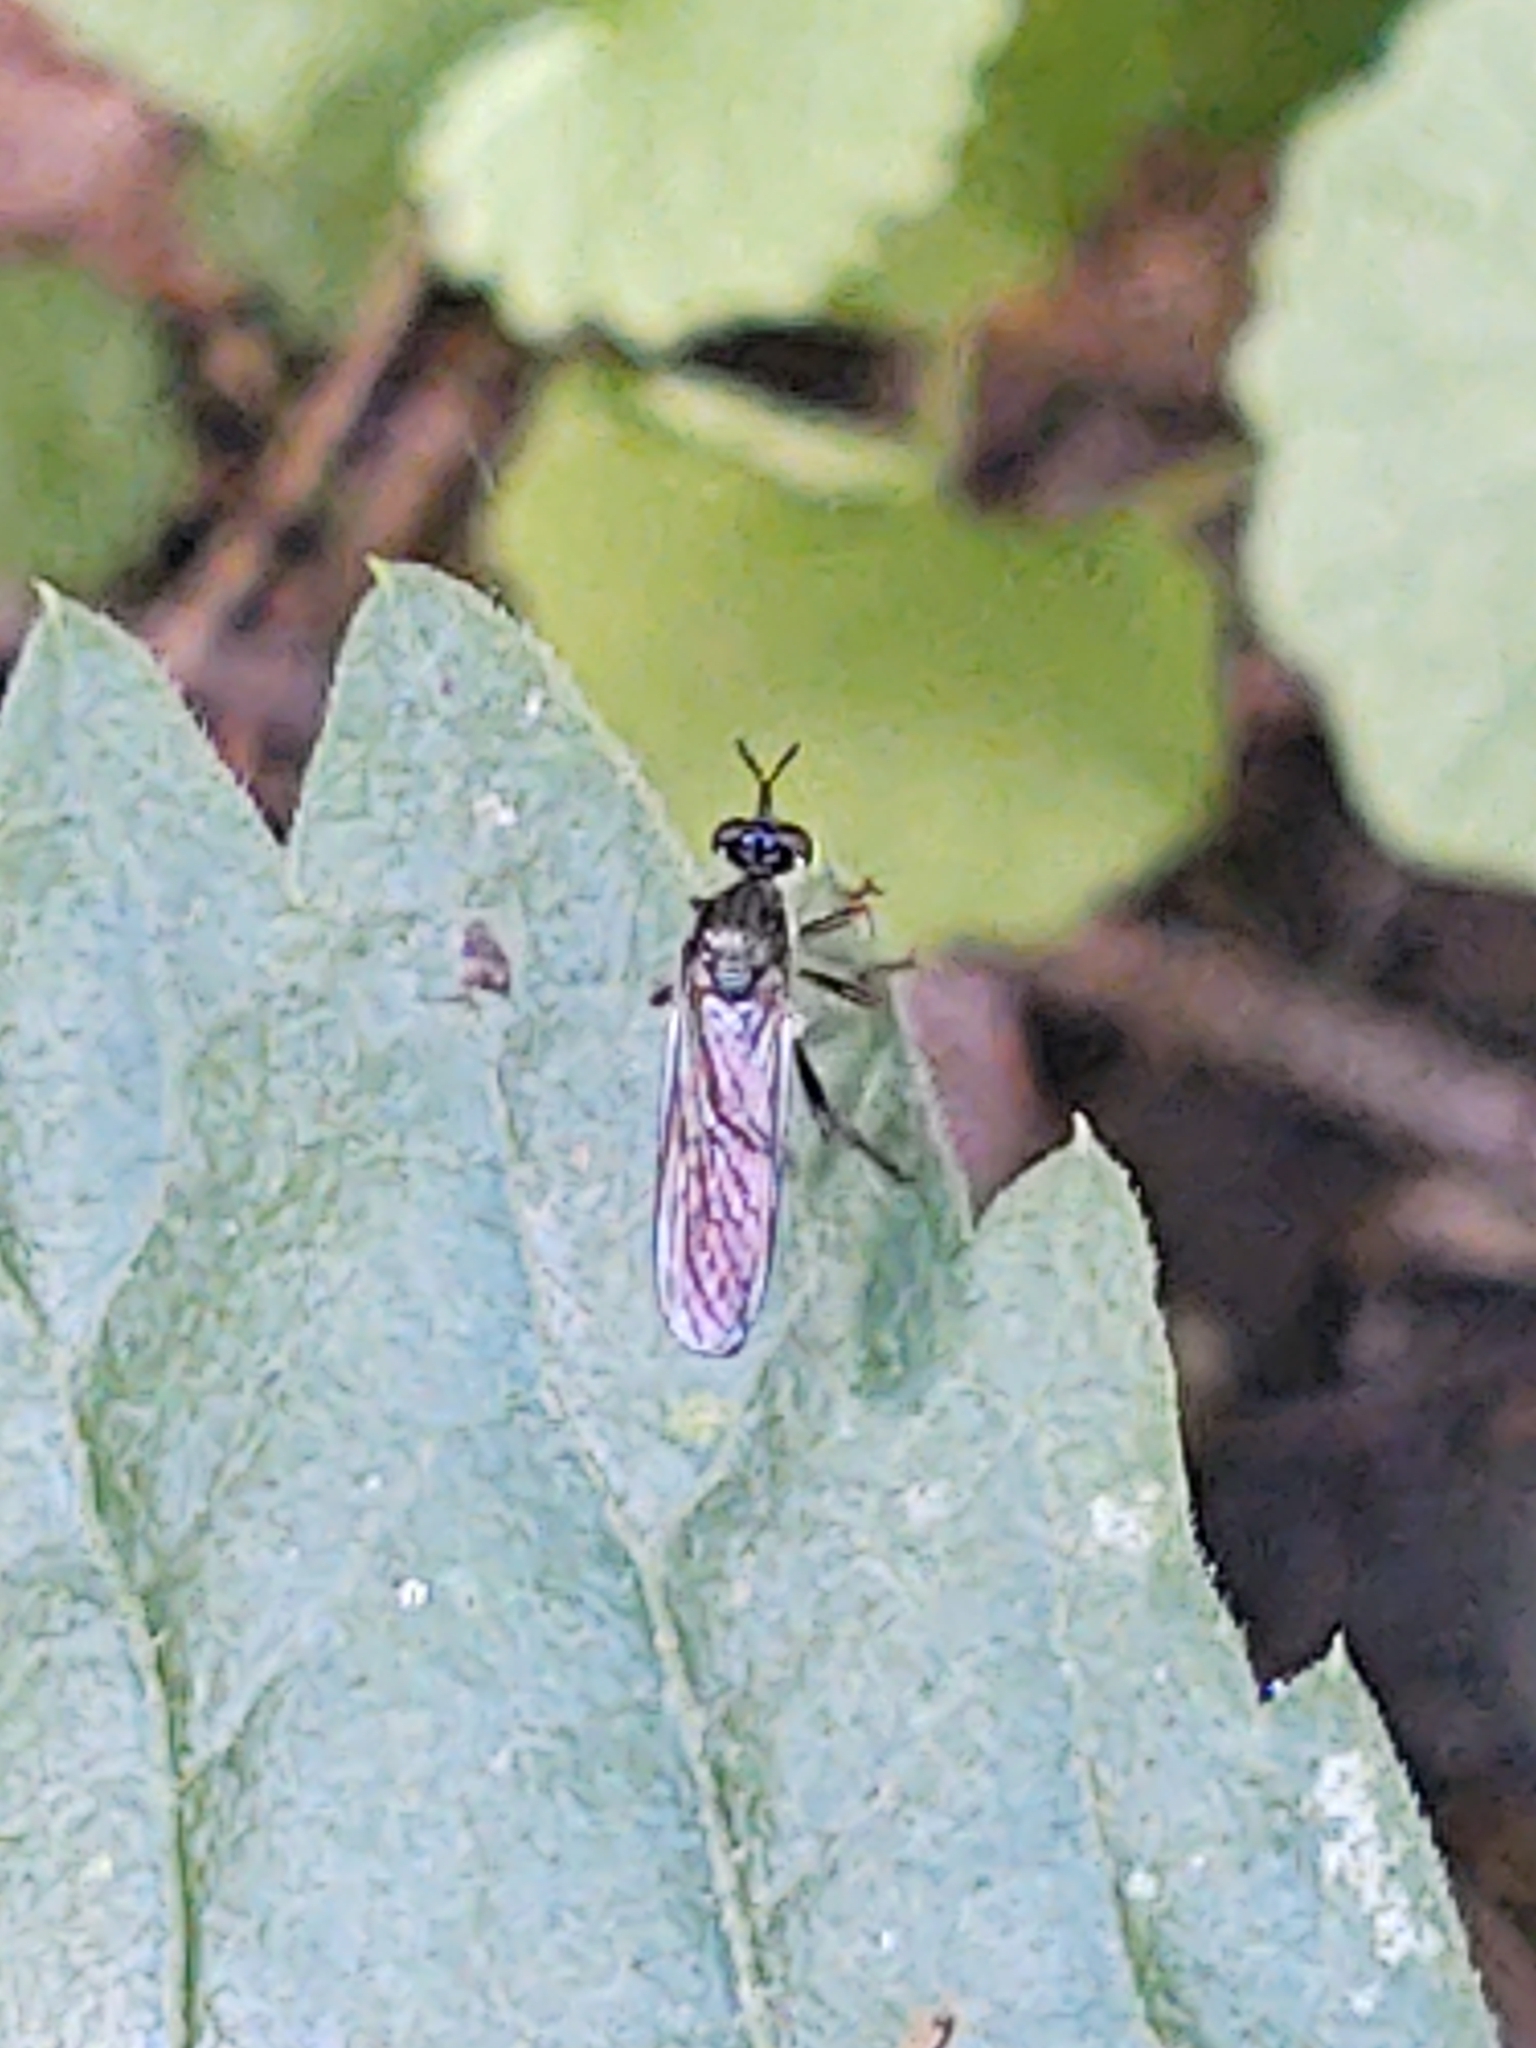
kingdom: Animalia
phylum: Arthropoda
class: Insecta
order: Diptera
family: Asilidae
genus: Dioctria
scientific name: Dioctria hyalipennis
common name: Stripe-legged robberfly
